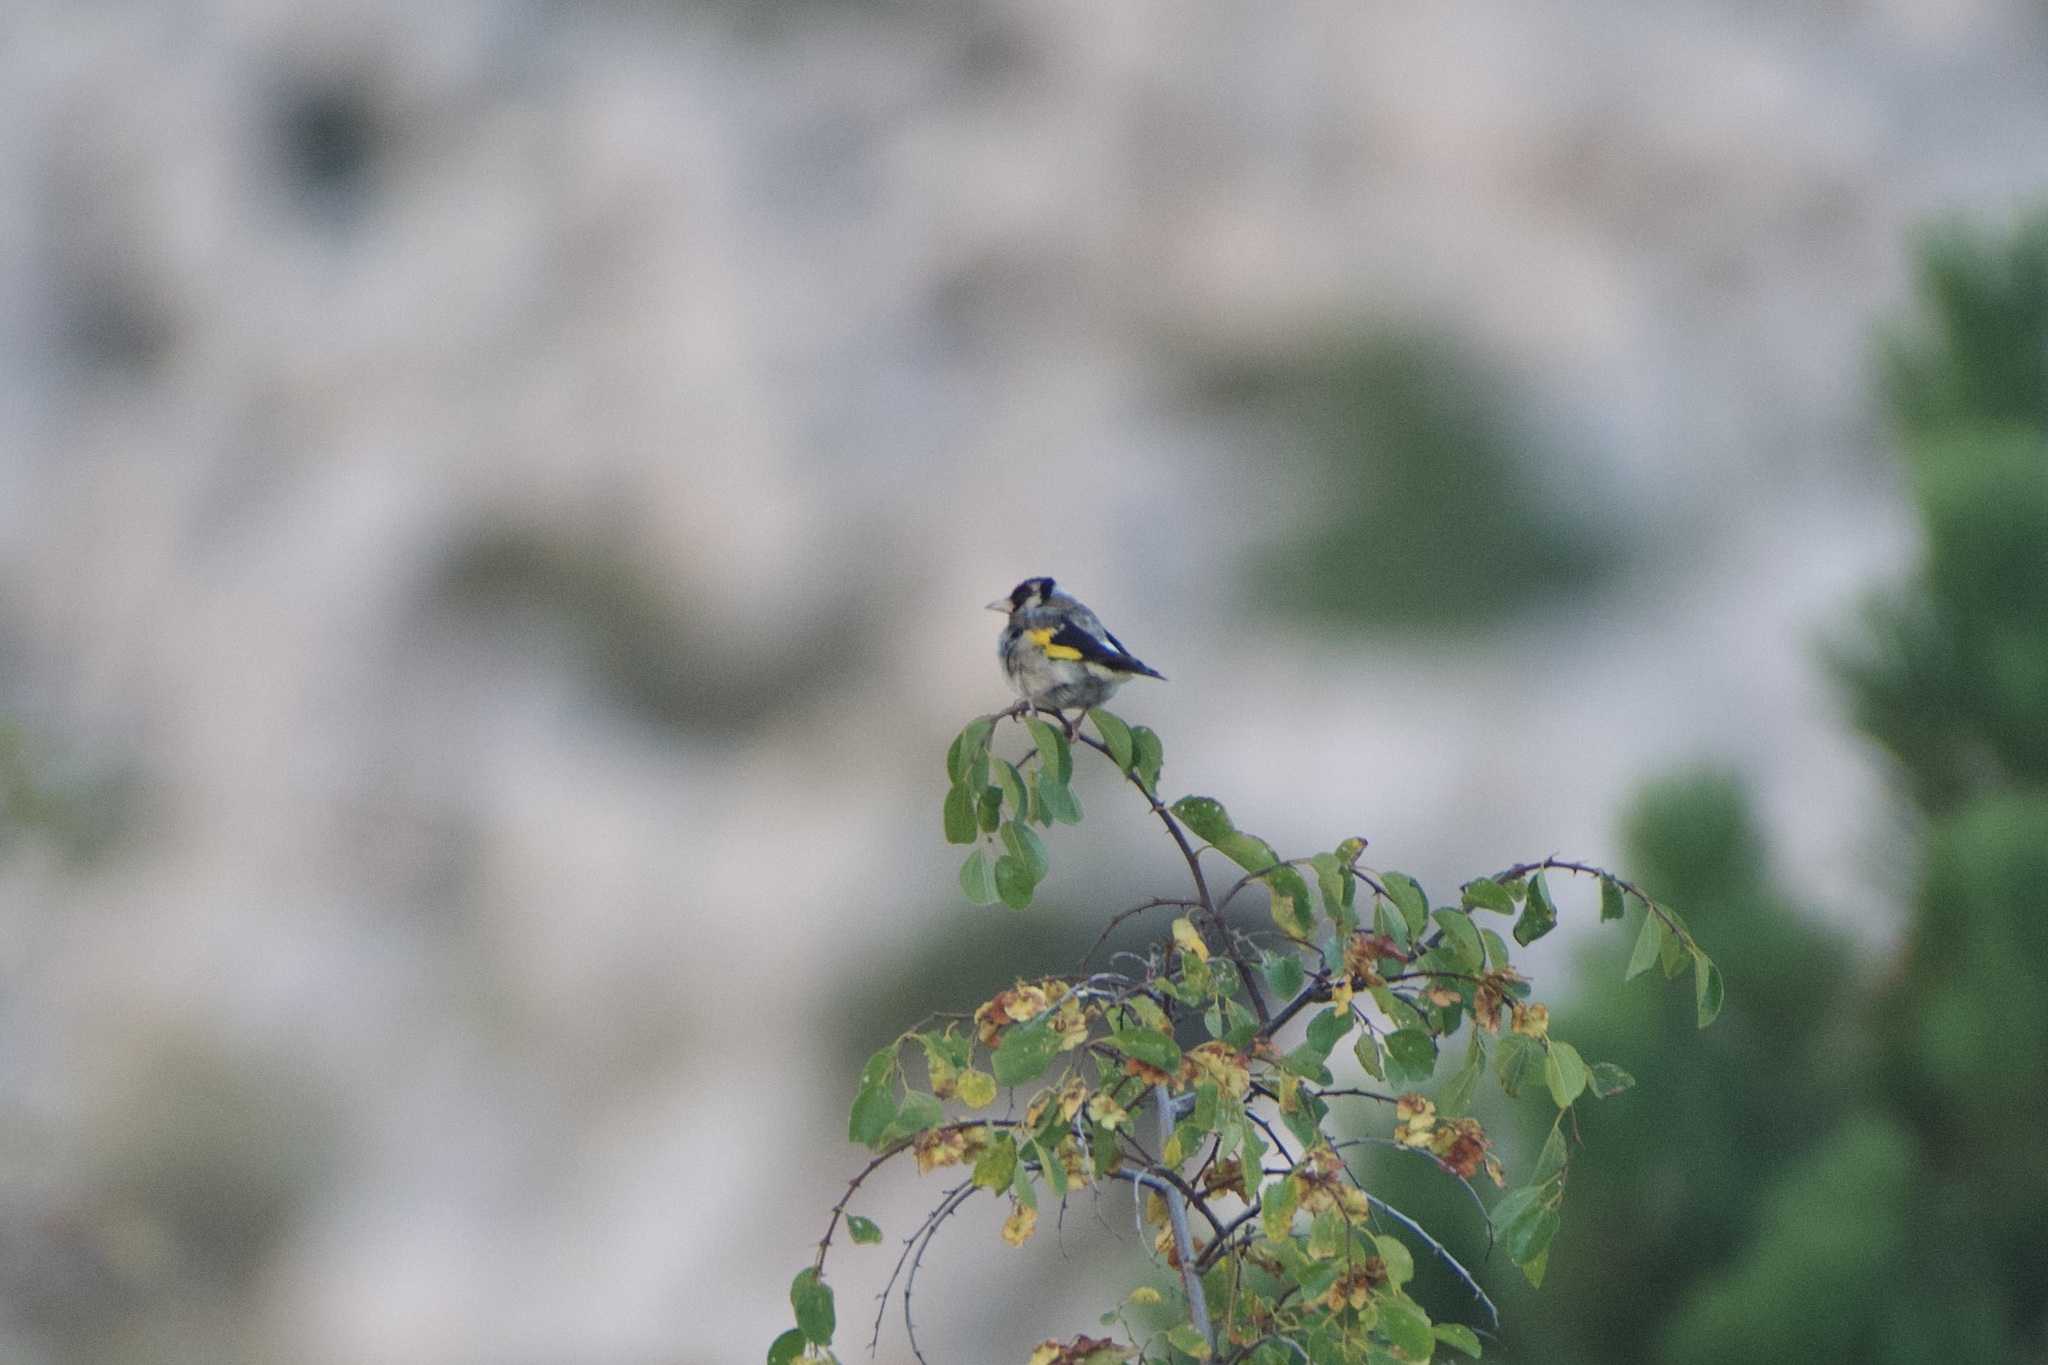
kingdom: Animalia
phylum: Chordata
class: Aves
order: Passeriformes
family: Fringillidae
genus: Carduelis
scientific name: Carduelis carduelis
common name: European goldfinch
